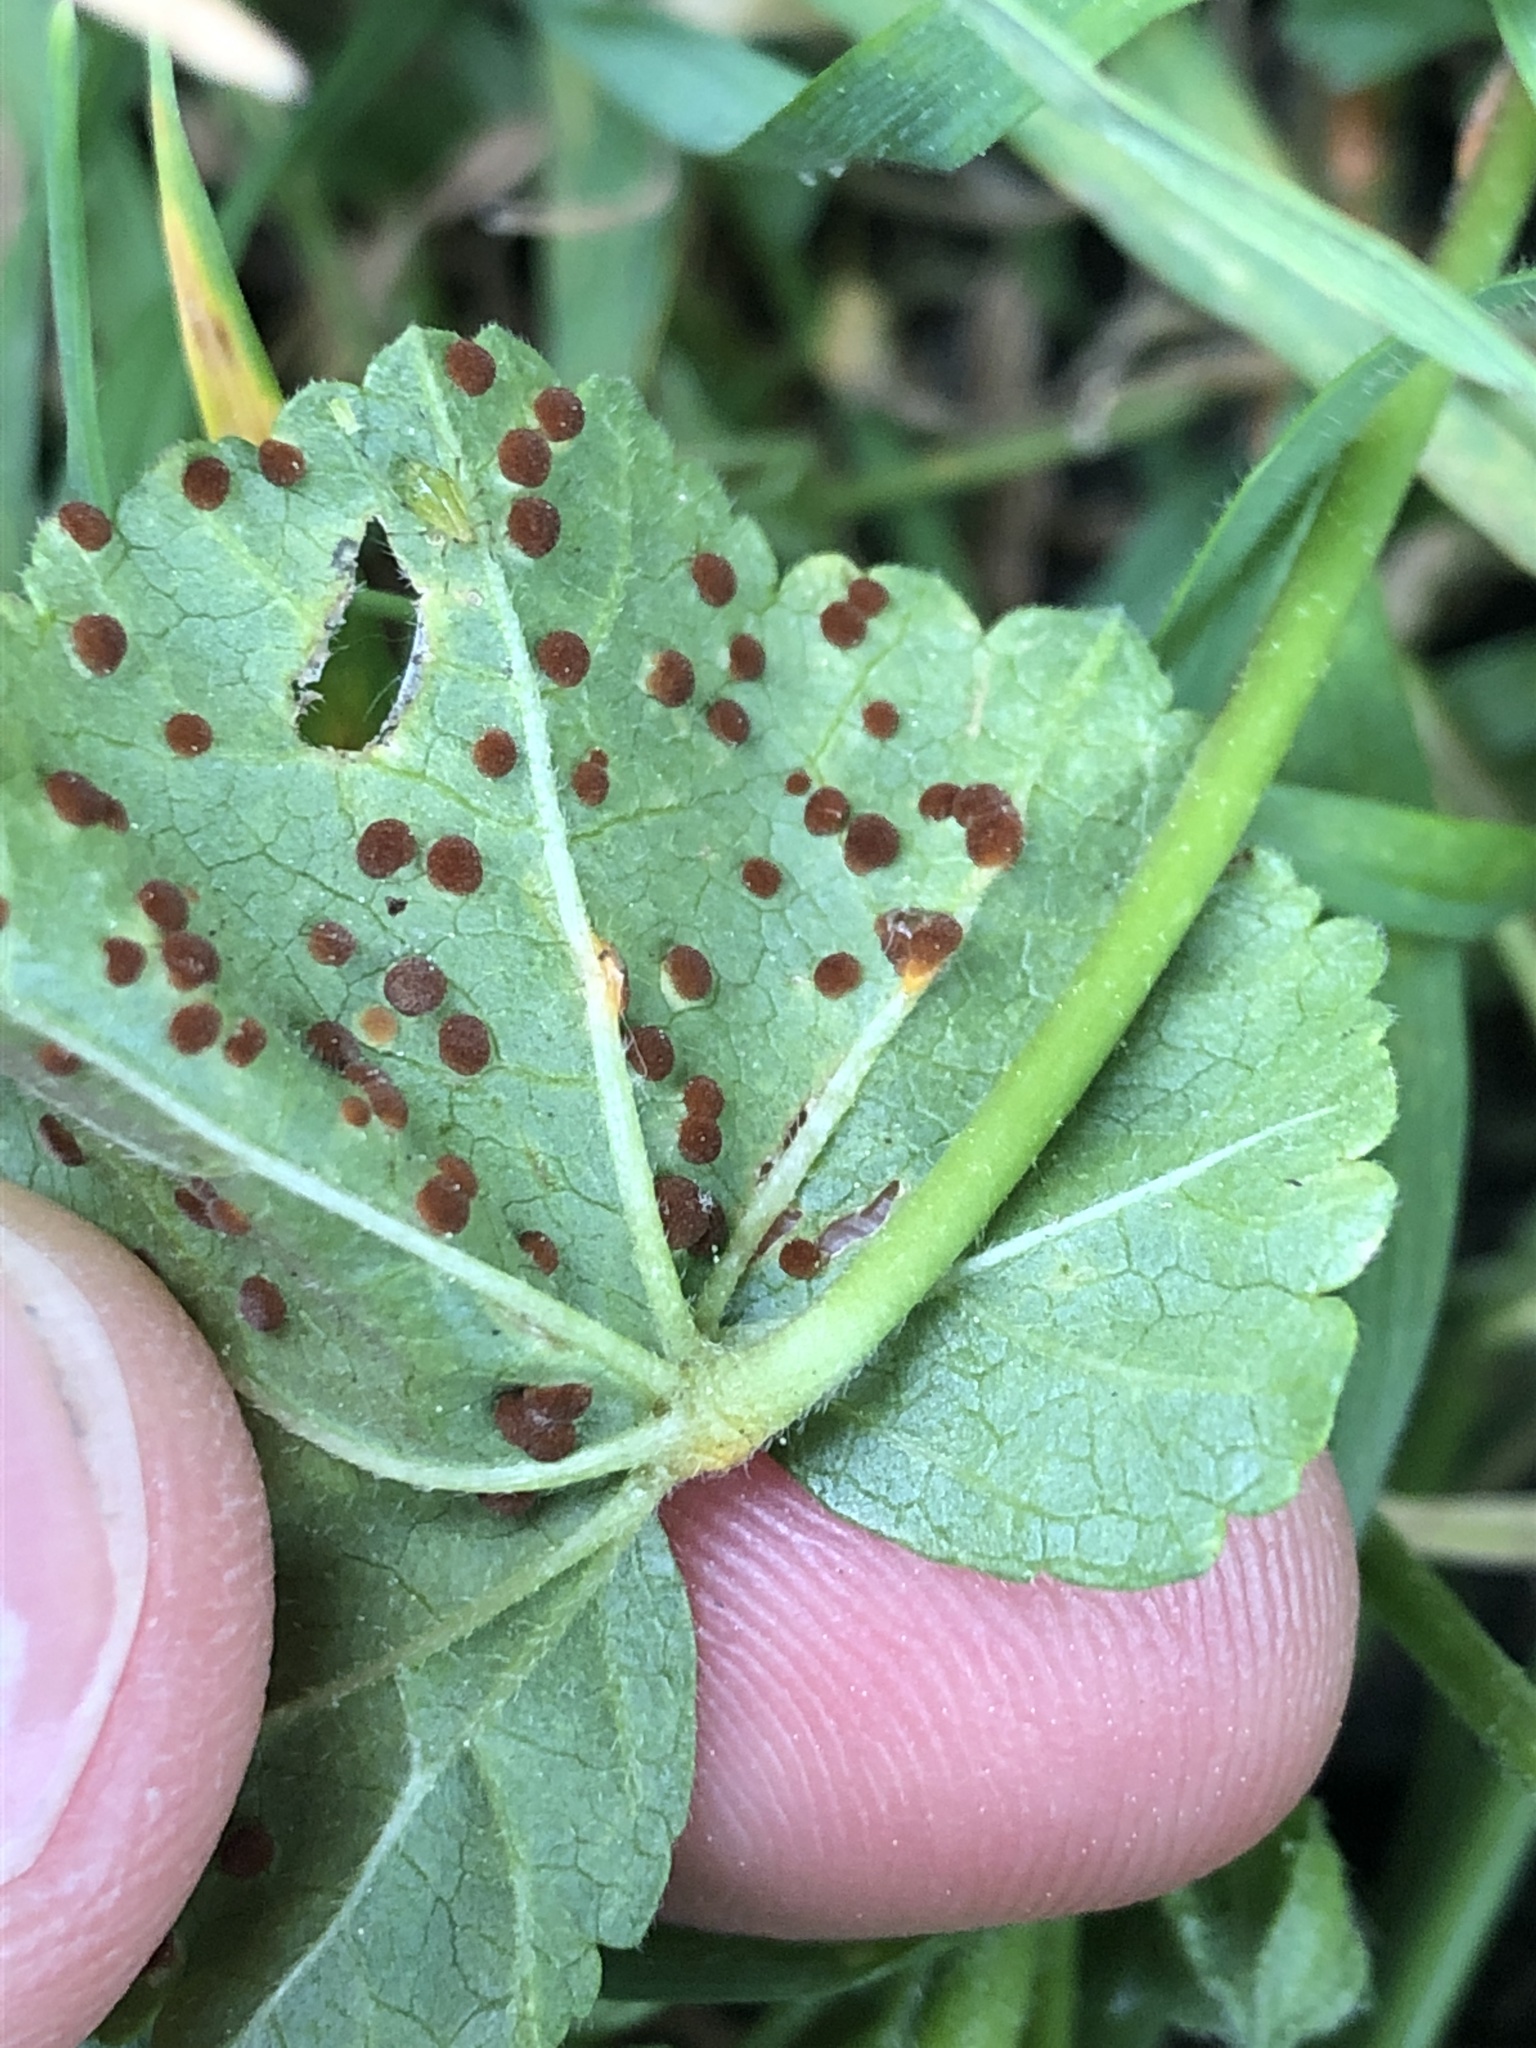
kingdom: Fungi
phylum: Basidiomycota
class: Pucciniomycetes
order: Pucciniales
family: Pucciniaceae
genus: Puccinia
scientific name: Puccinia malvacearum
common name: Hollyhock rust
